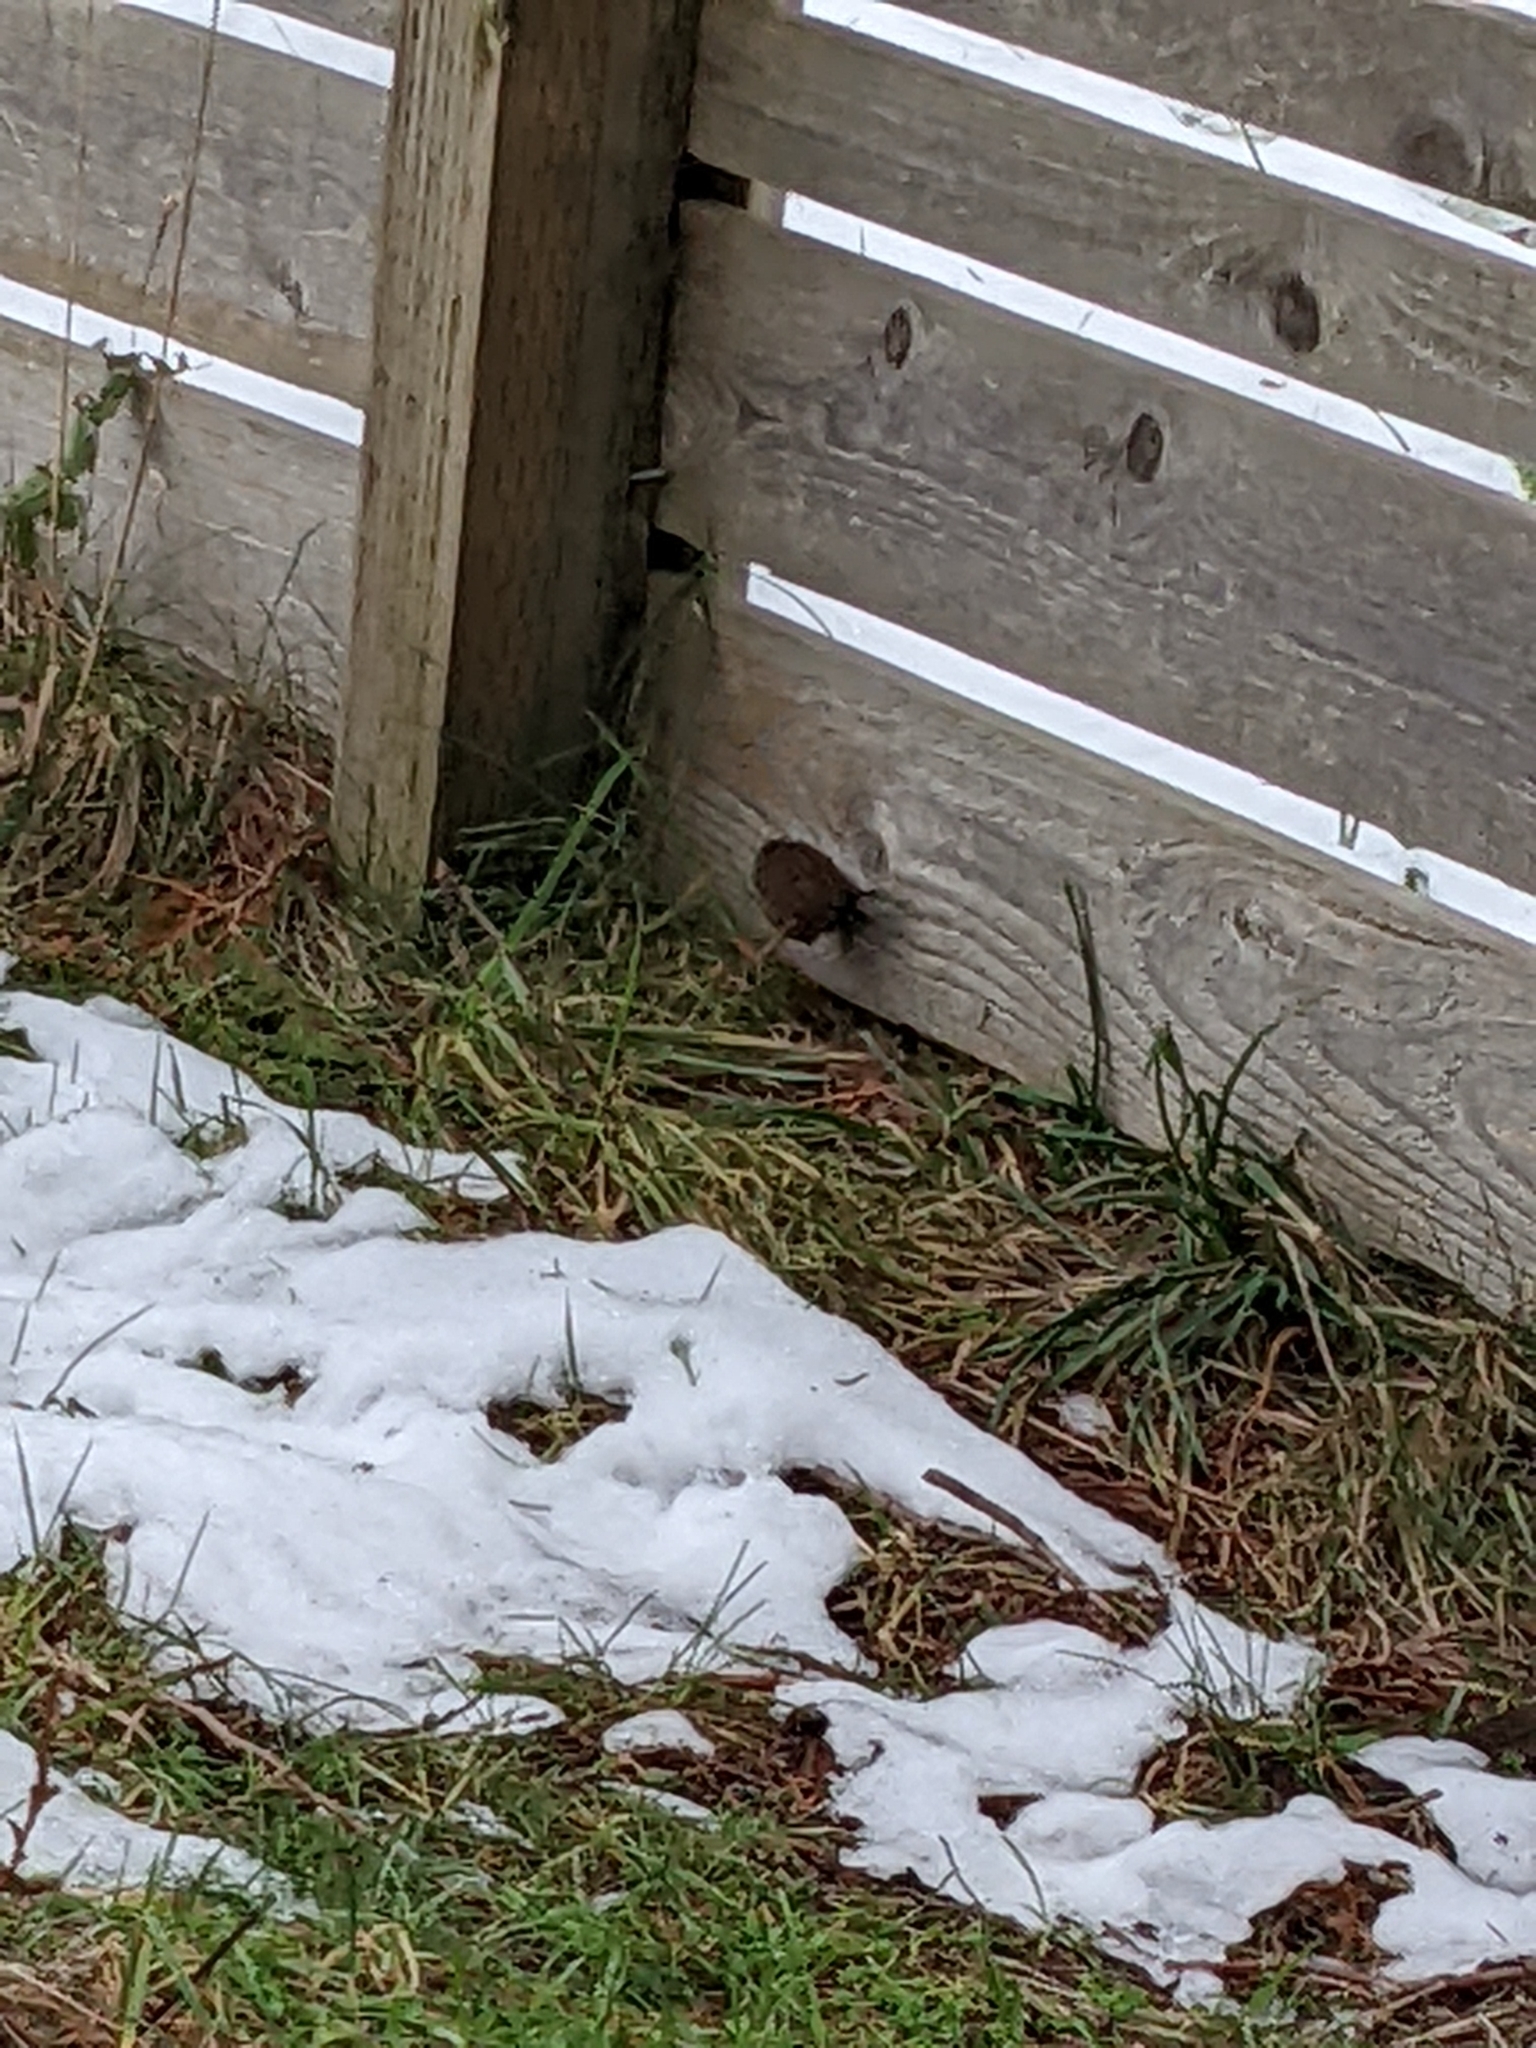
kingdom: Animalia
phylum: Chordata
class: Aves
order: Passeriformes
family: Troglodytidae
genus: Troglodytes
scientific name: Troglodytes pacificus
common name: Pacific wren
